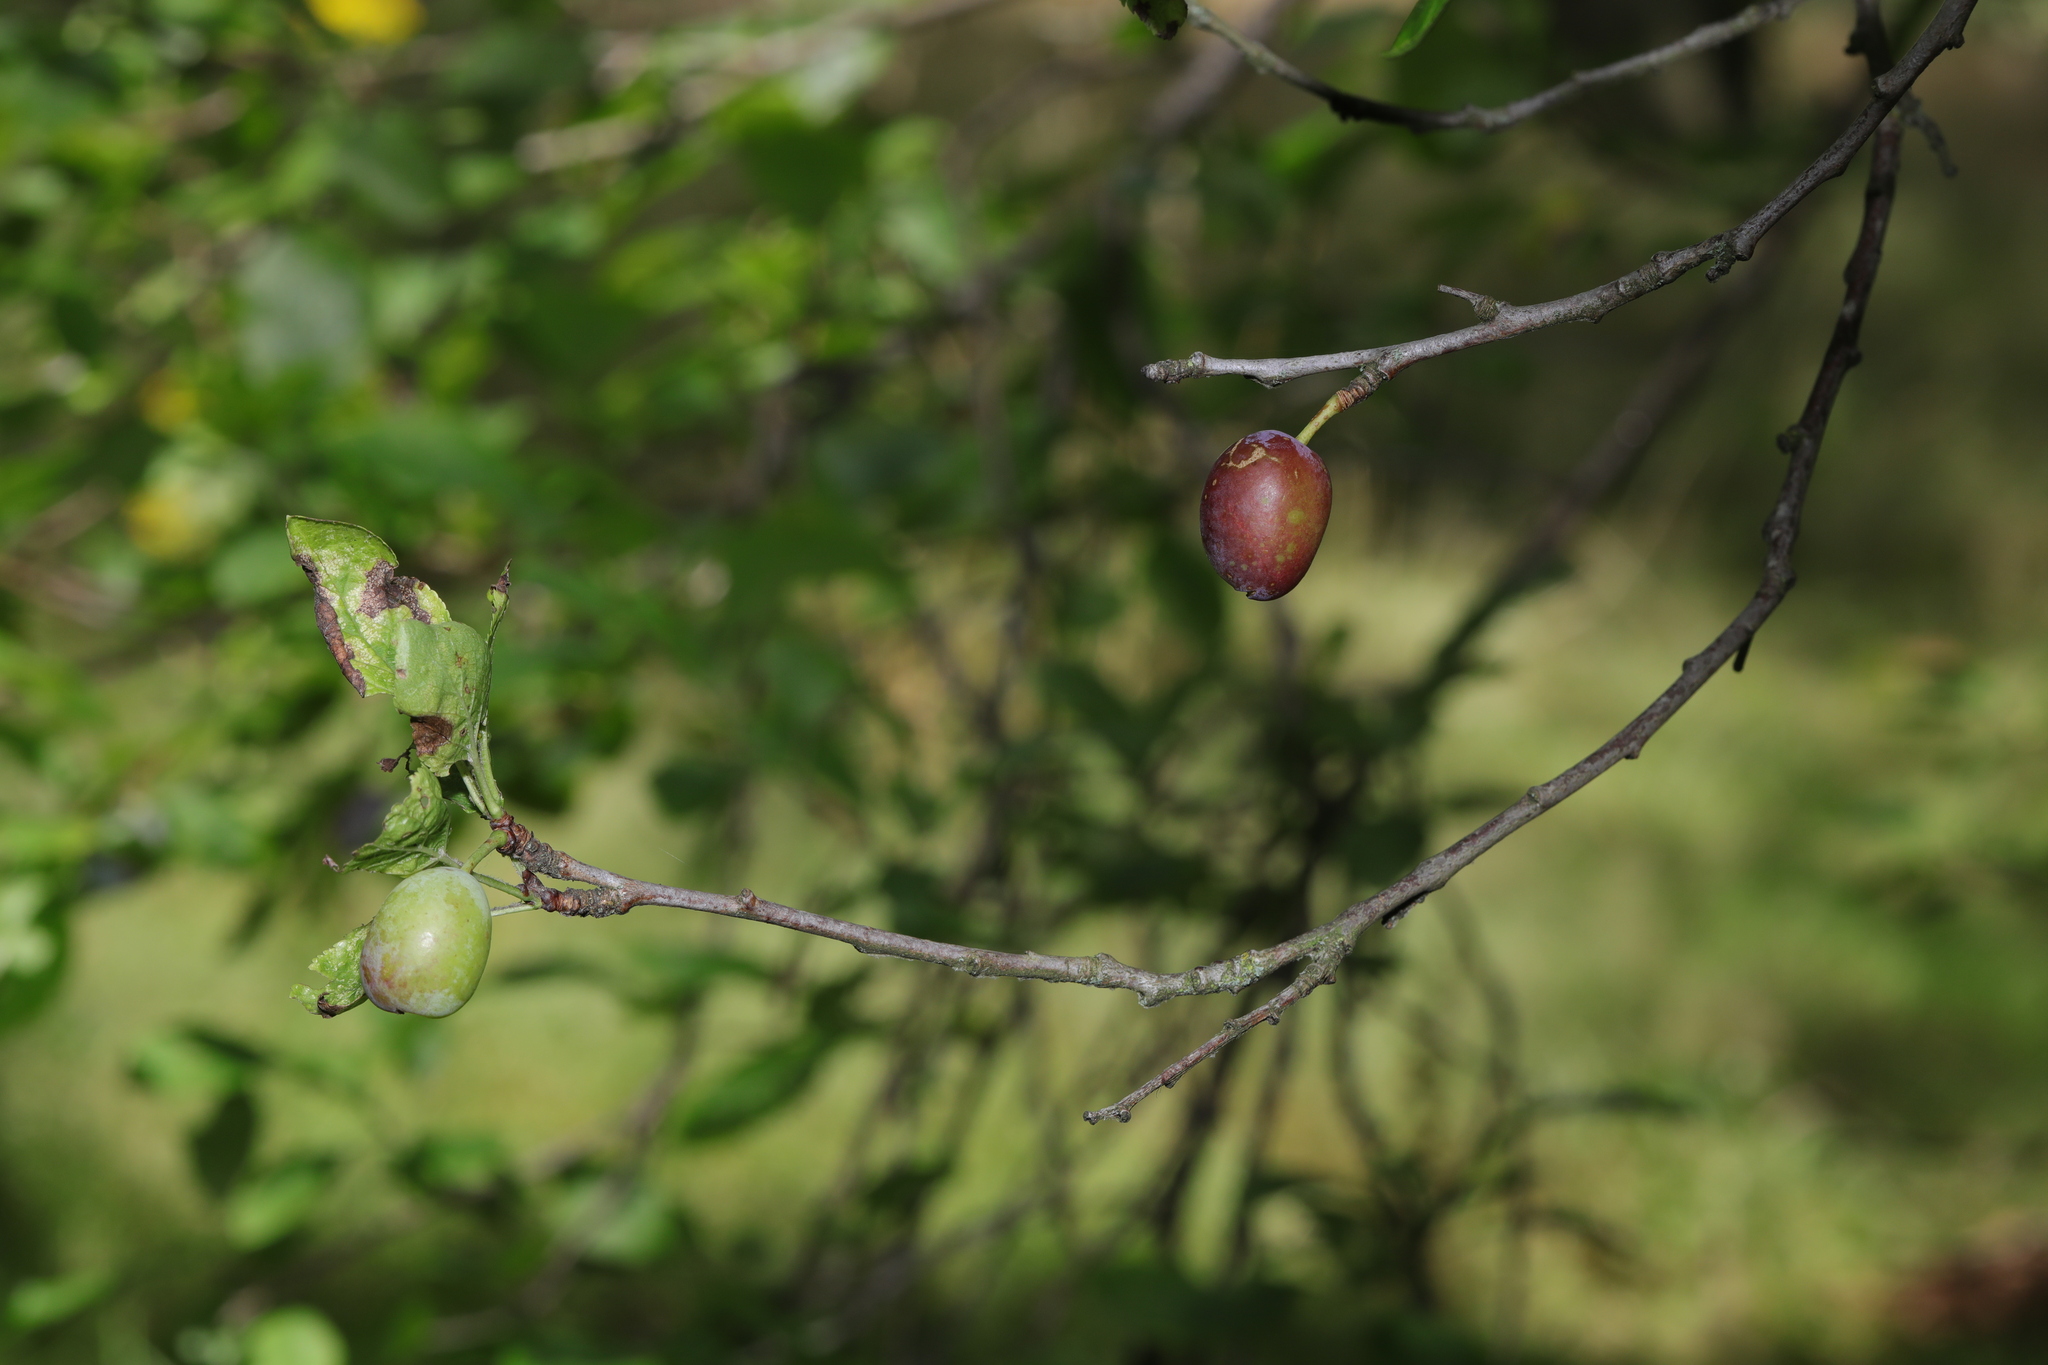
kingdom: Plantae
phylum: Tracheophyta
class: Magnoliopsida
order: Rosales
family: Rosaceae
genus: Prunus
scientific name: Prunus domestica
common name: Wild plum
